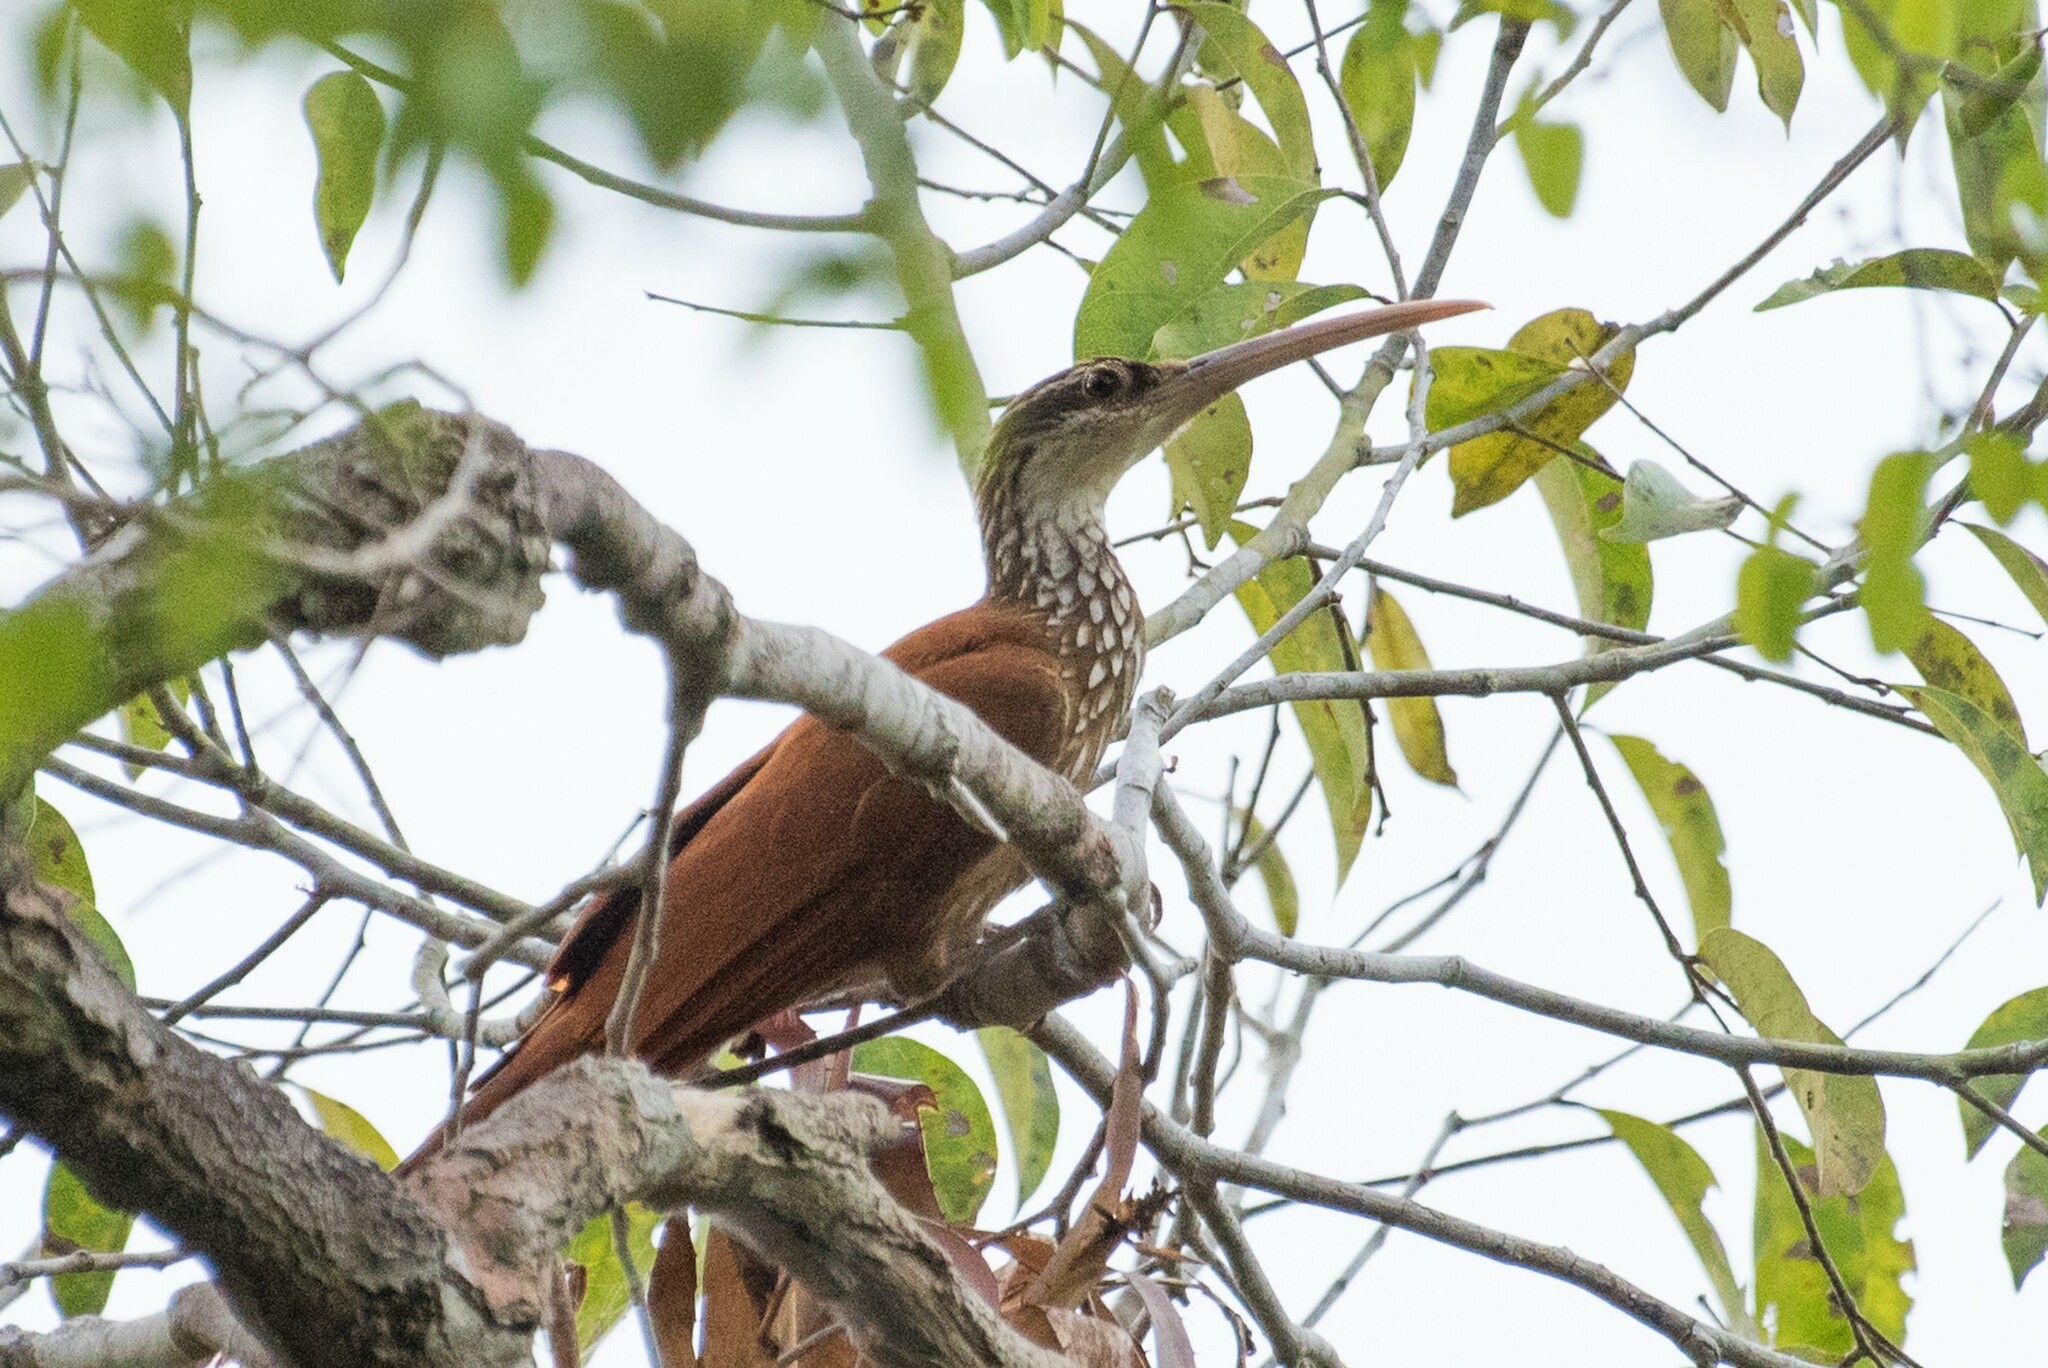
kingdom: Animalia
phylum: Chordata
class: Aves
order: Passeriformes
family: Furnariidae
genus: Nasica
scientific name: Nasica longirostris
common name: Long-billed woodcreeper
